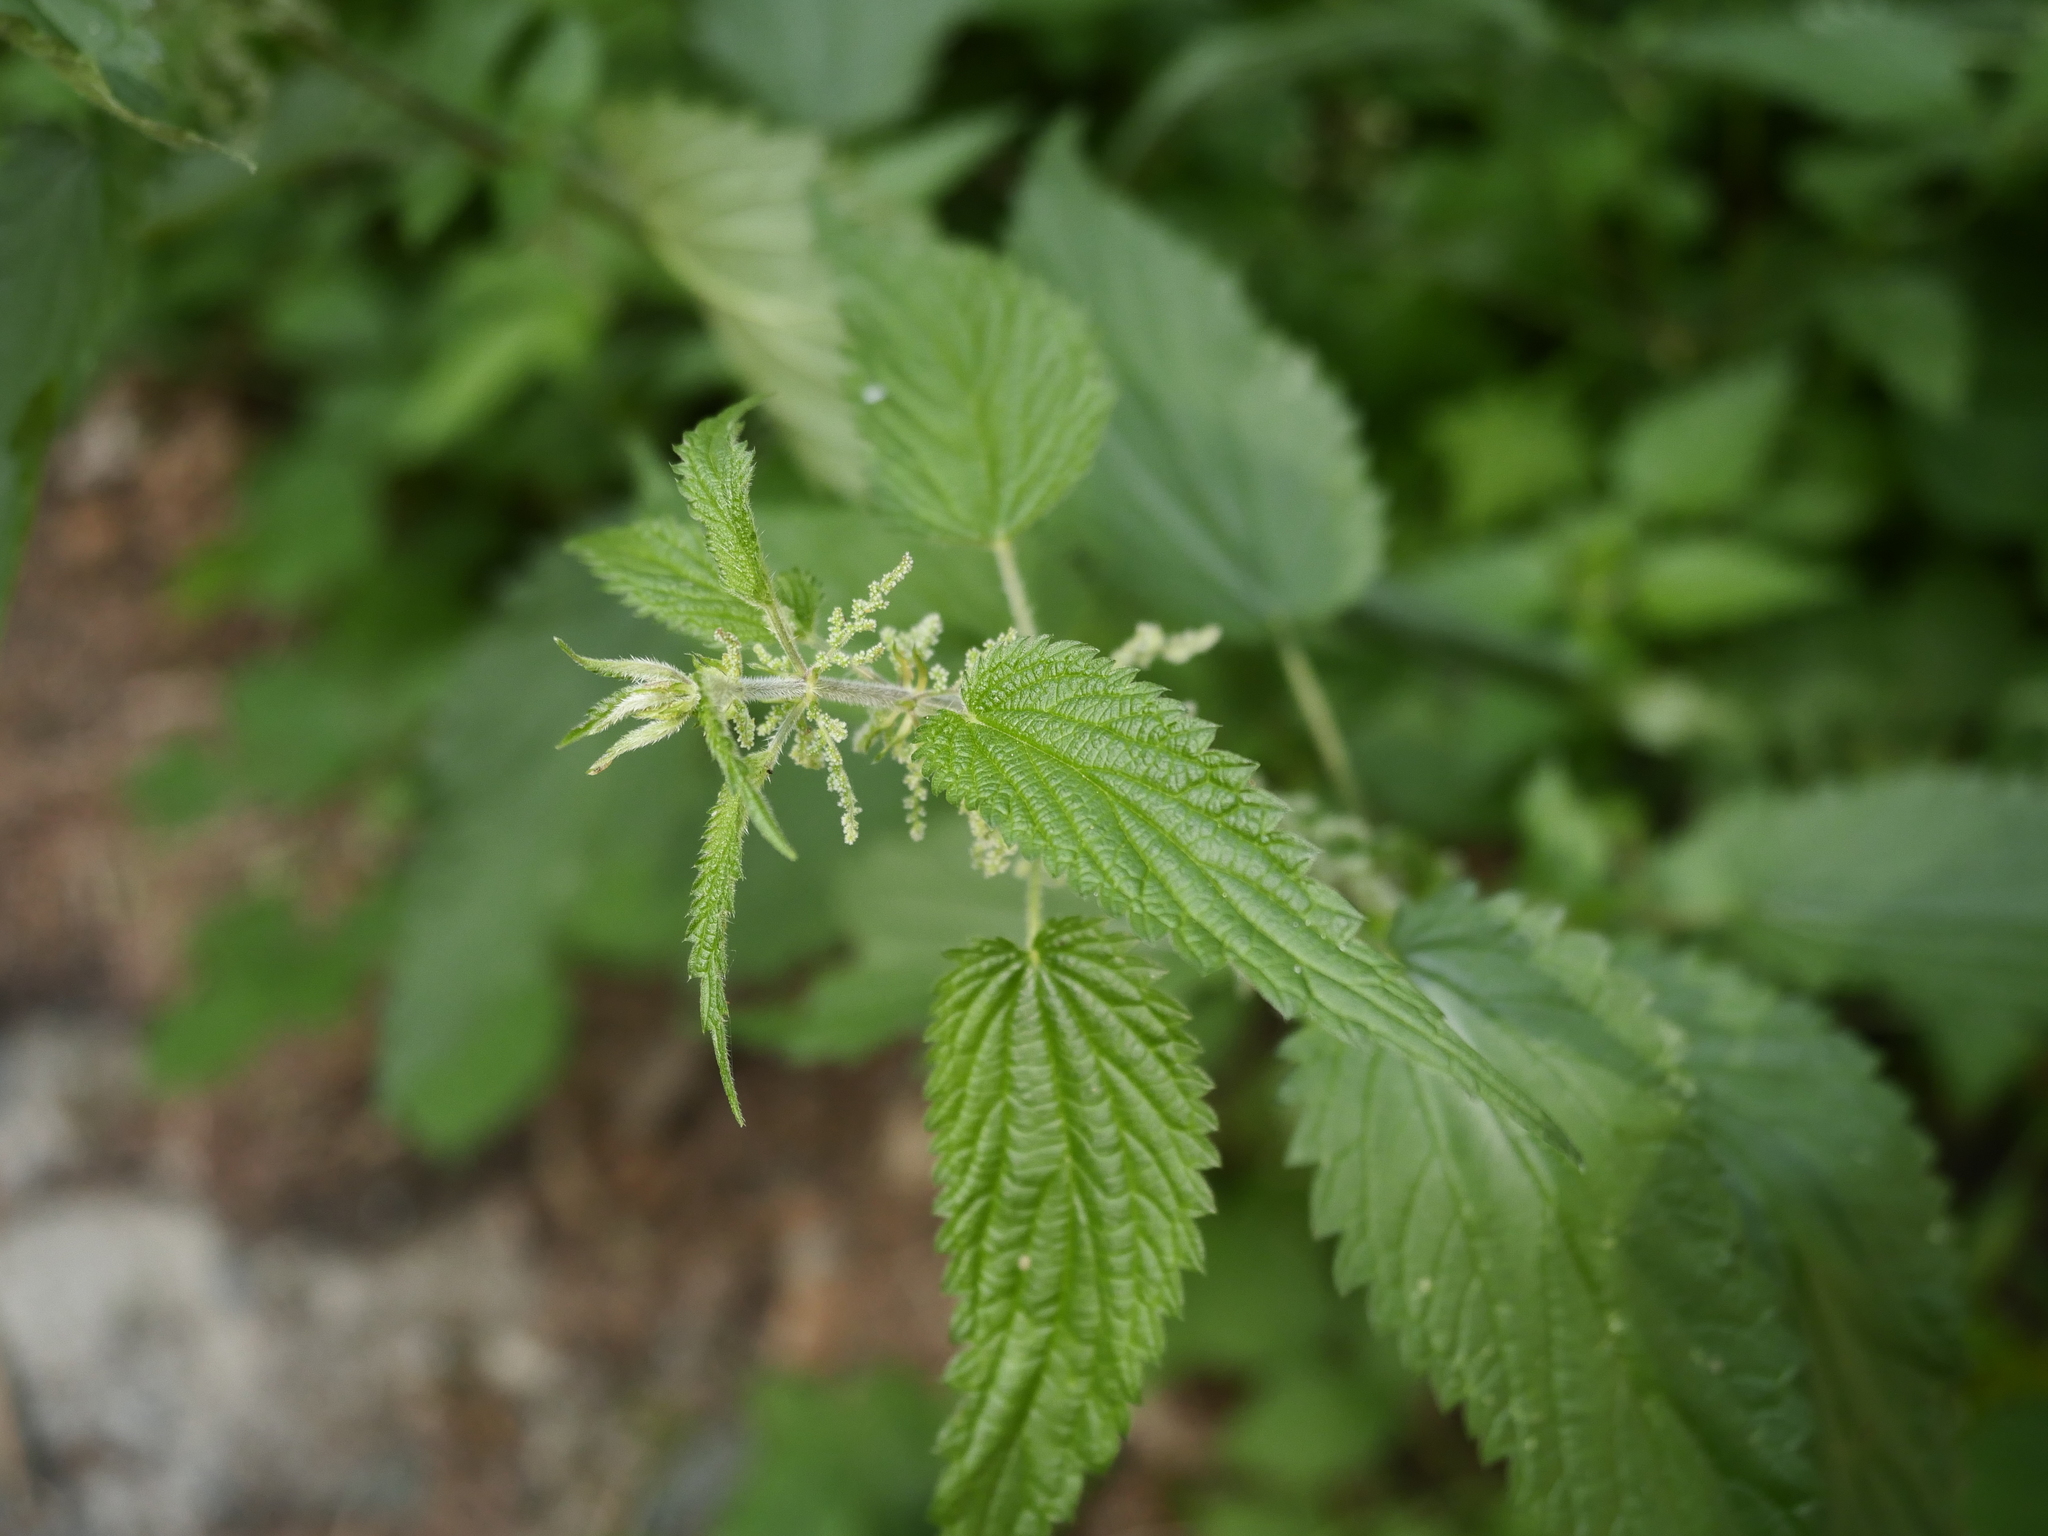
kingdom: Plantae
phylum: Tracheophyta
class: Magnoliopsida
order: Rosales
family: Urticaceae
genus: Urtica
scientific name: Urtica dioica
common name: Common nettle
